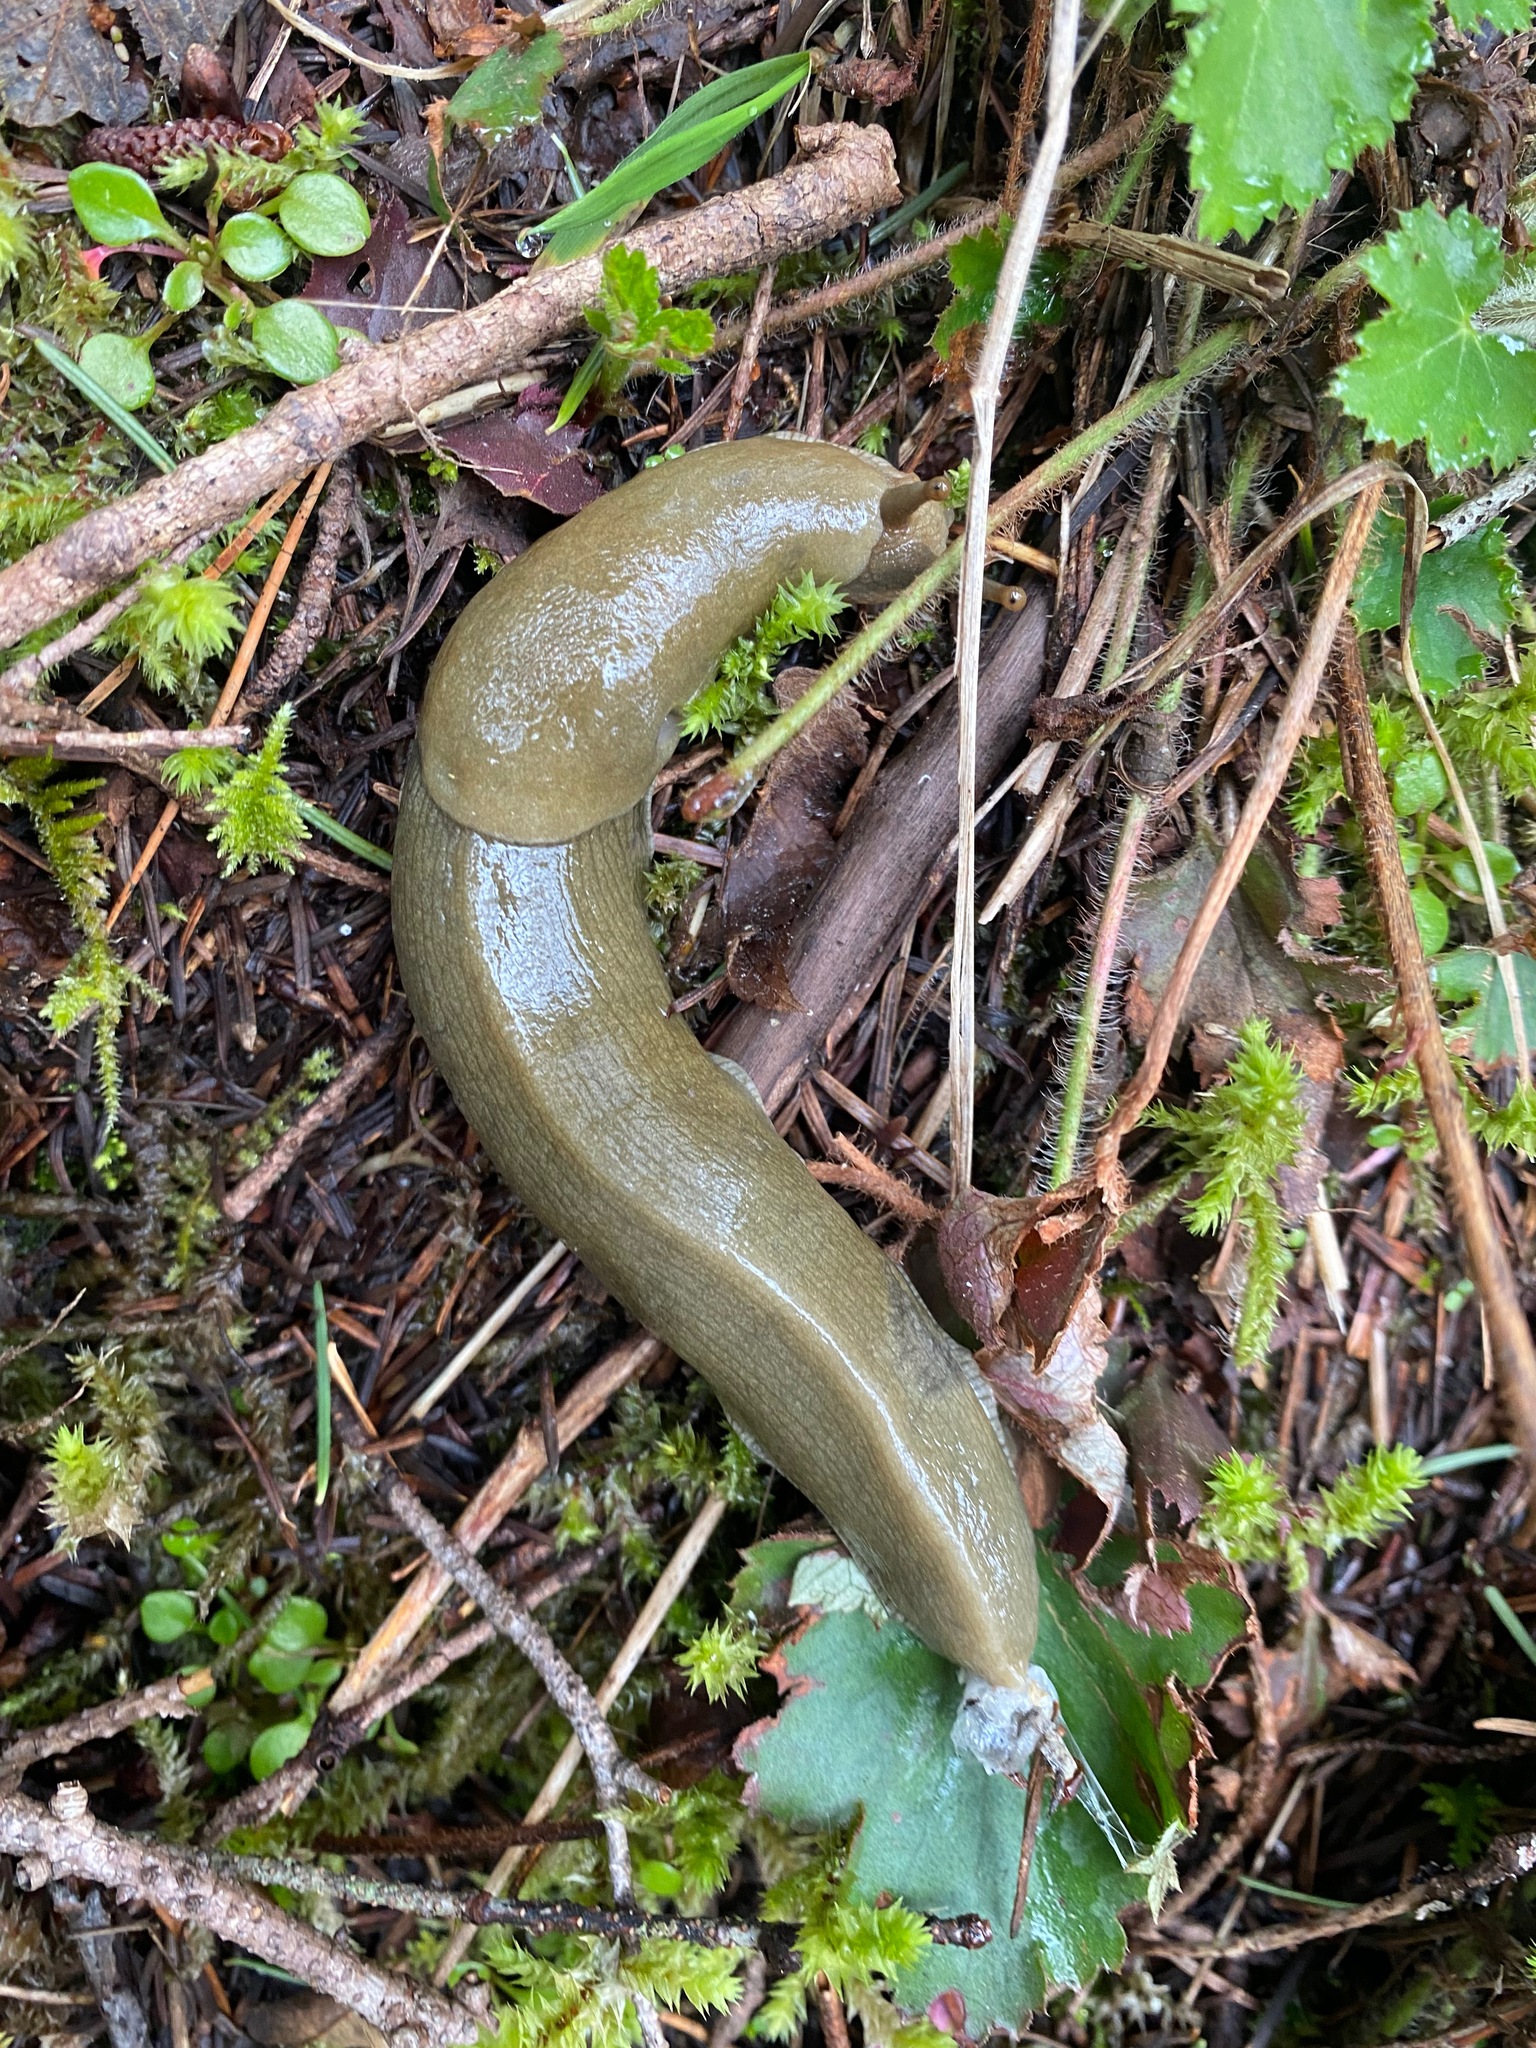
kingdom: Animalia
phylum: Mollusca
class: Gastropoda
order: Stylommatophora
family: Ariolimacidae
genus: Ariolimax
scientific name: Ariolimax columbianus
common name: Pacific banana slug
